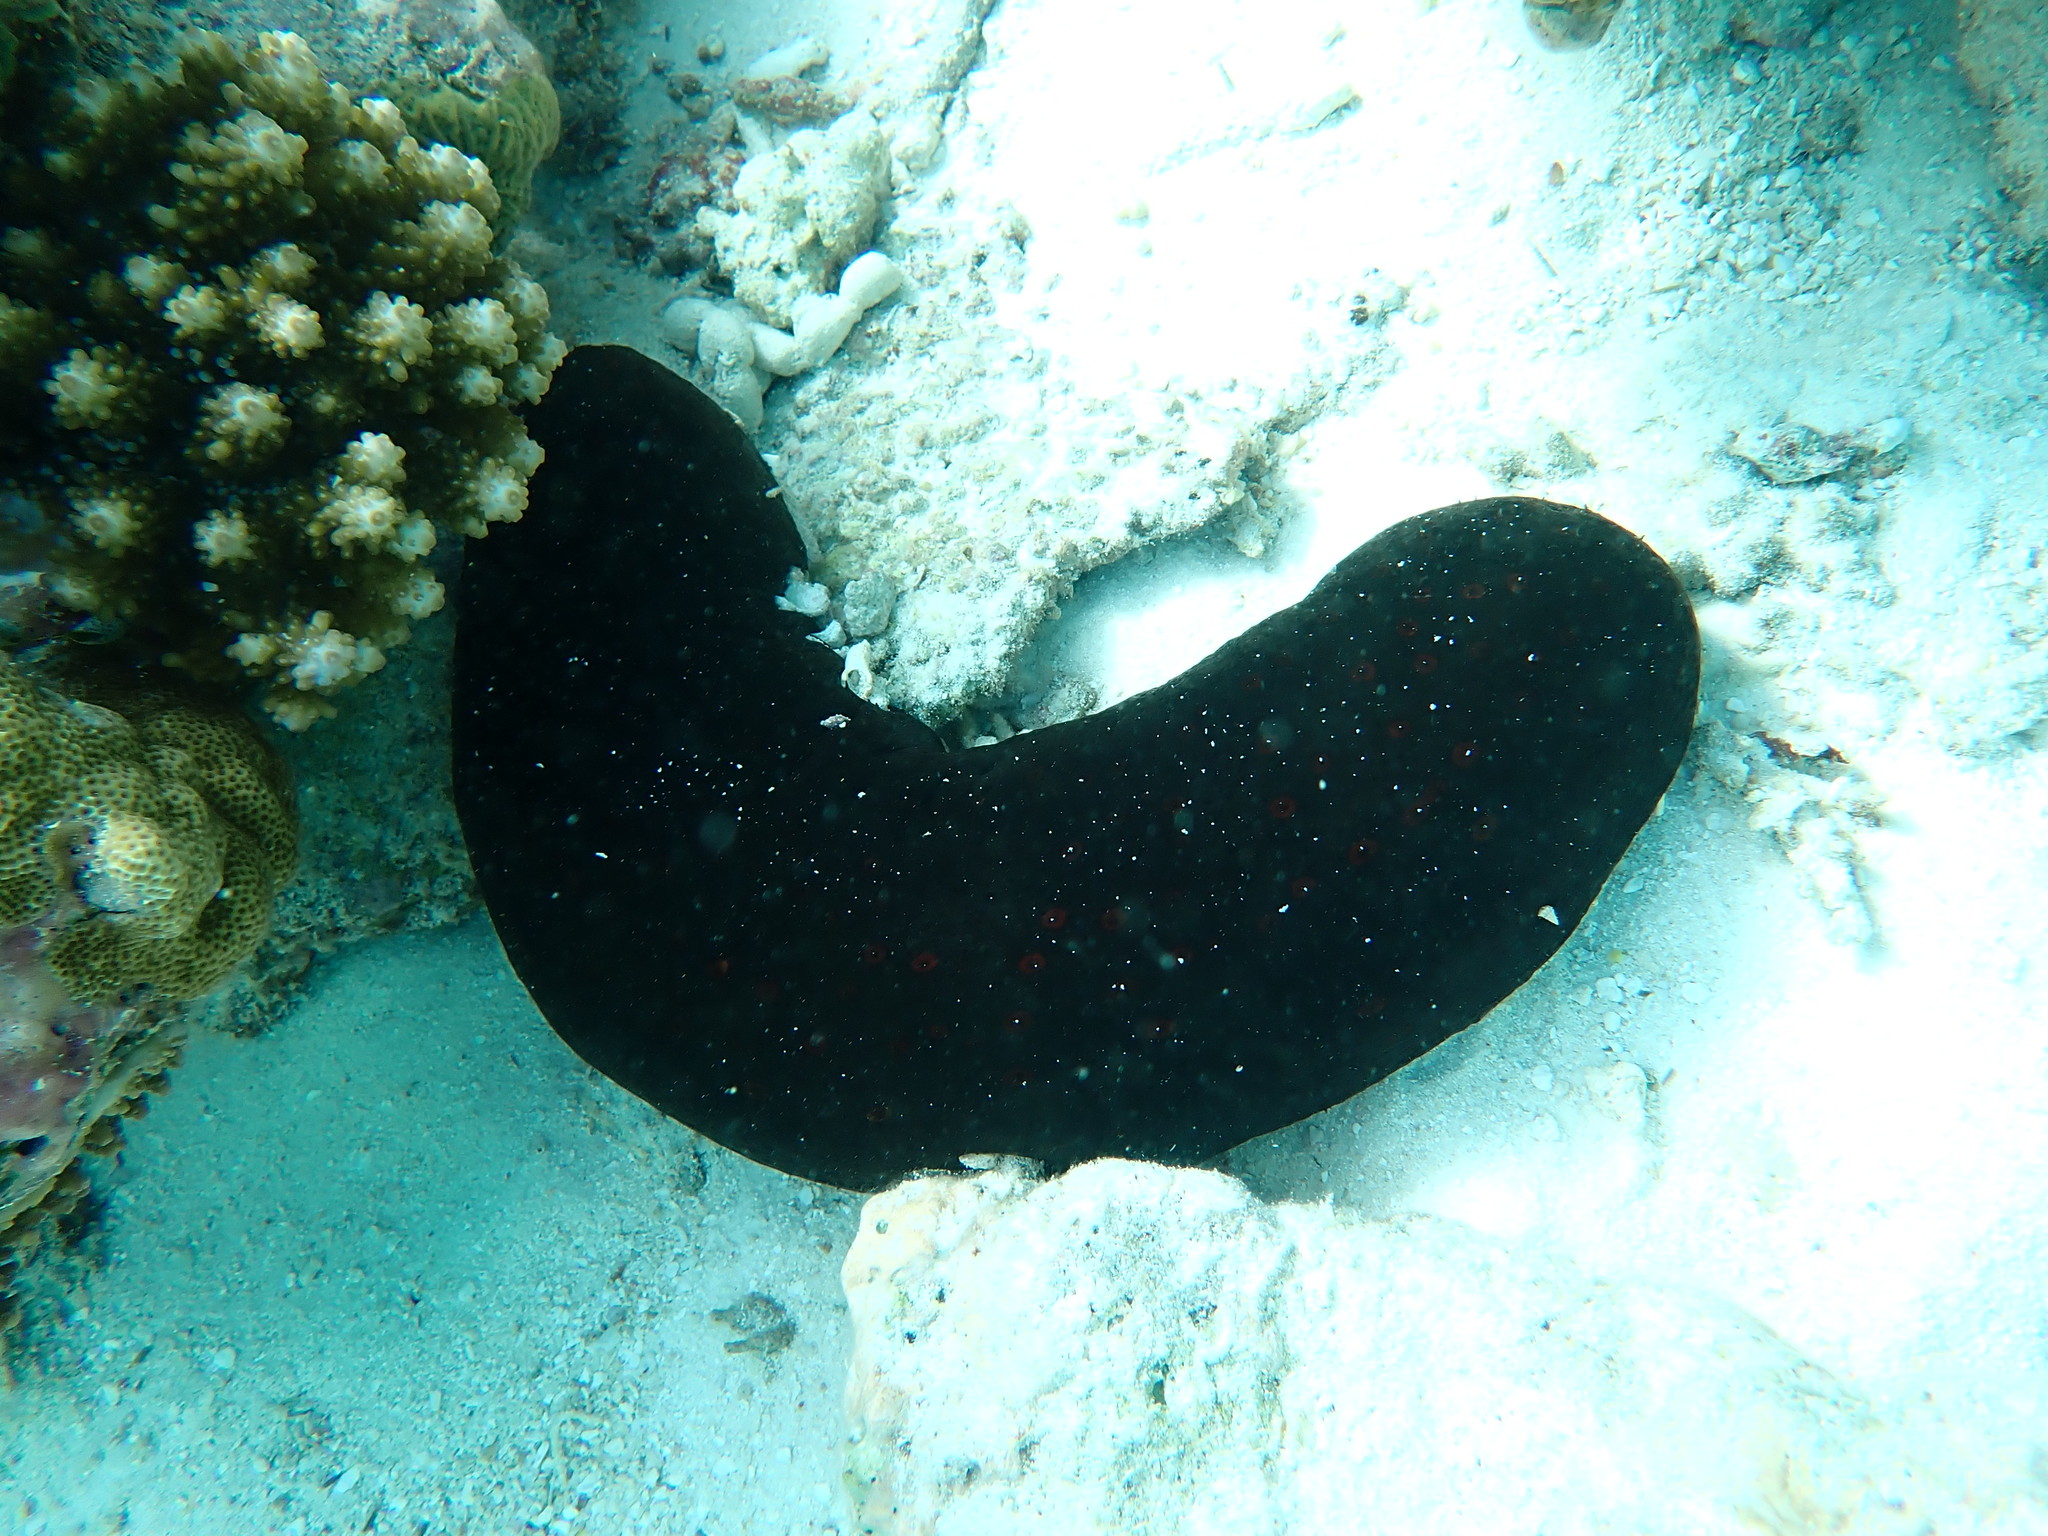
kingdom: Animalia
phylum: Echinodermata
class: Holothuroidea
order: Holothuriida
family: Holothuriidae
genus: Bohadschia
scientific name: Bohadschia atra
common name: Tigerfish
